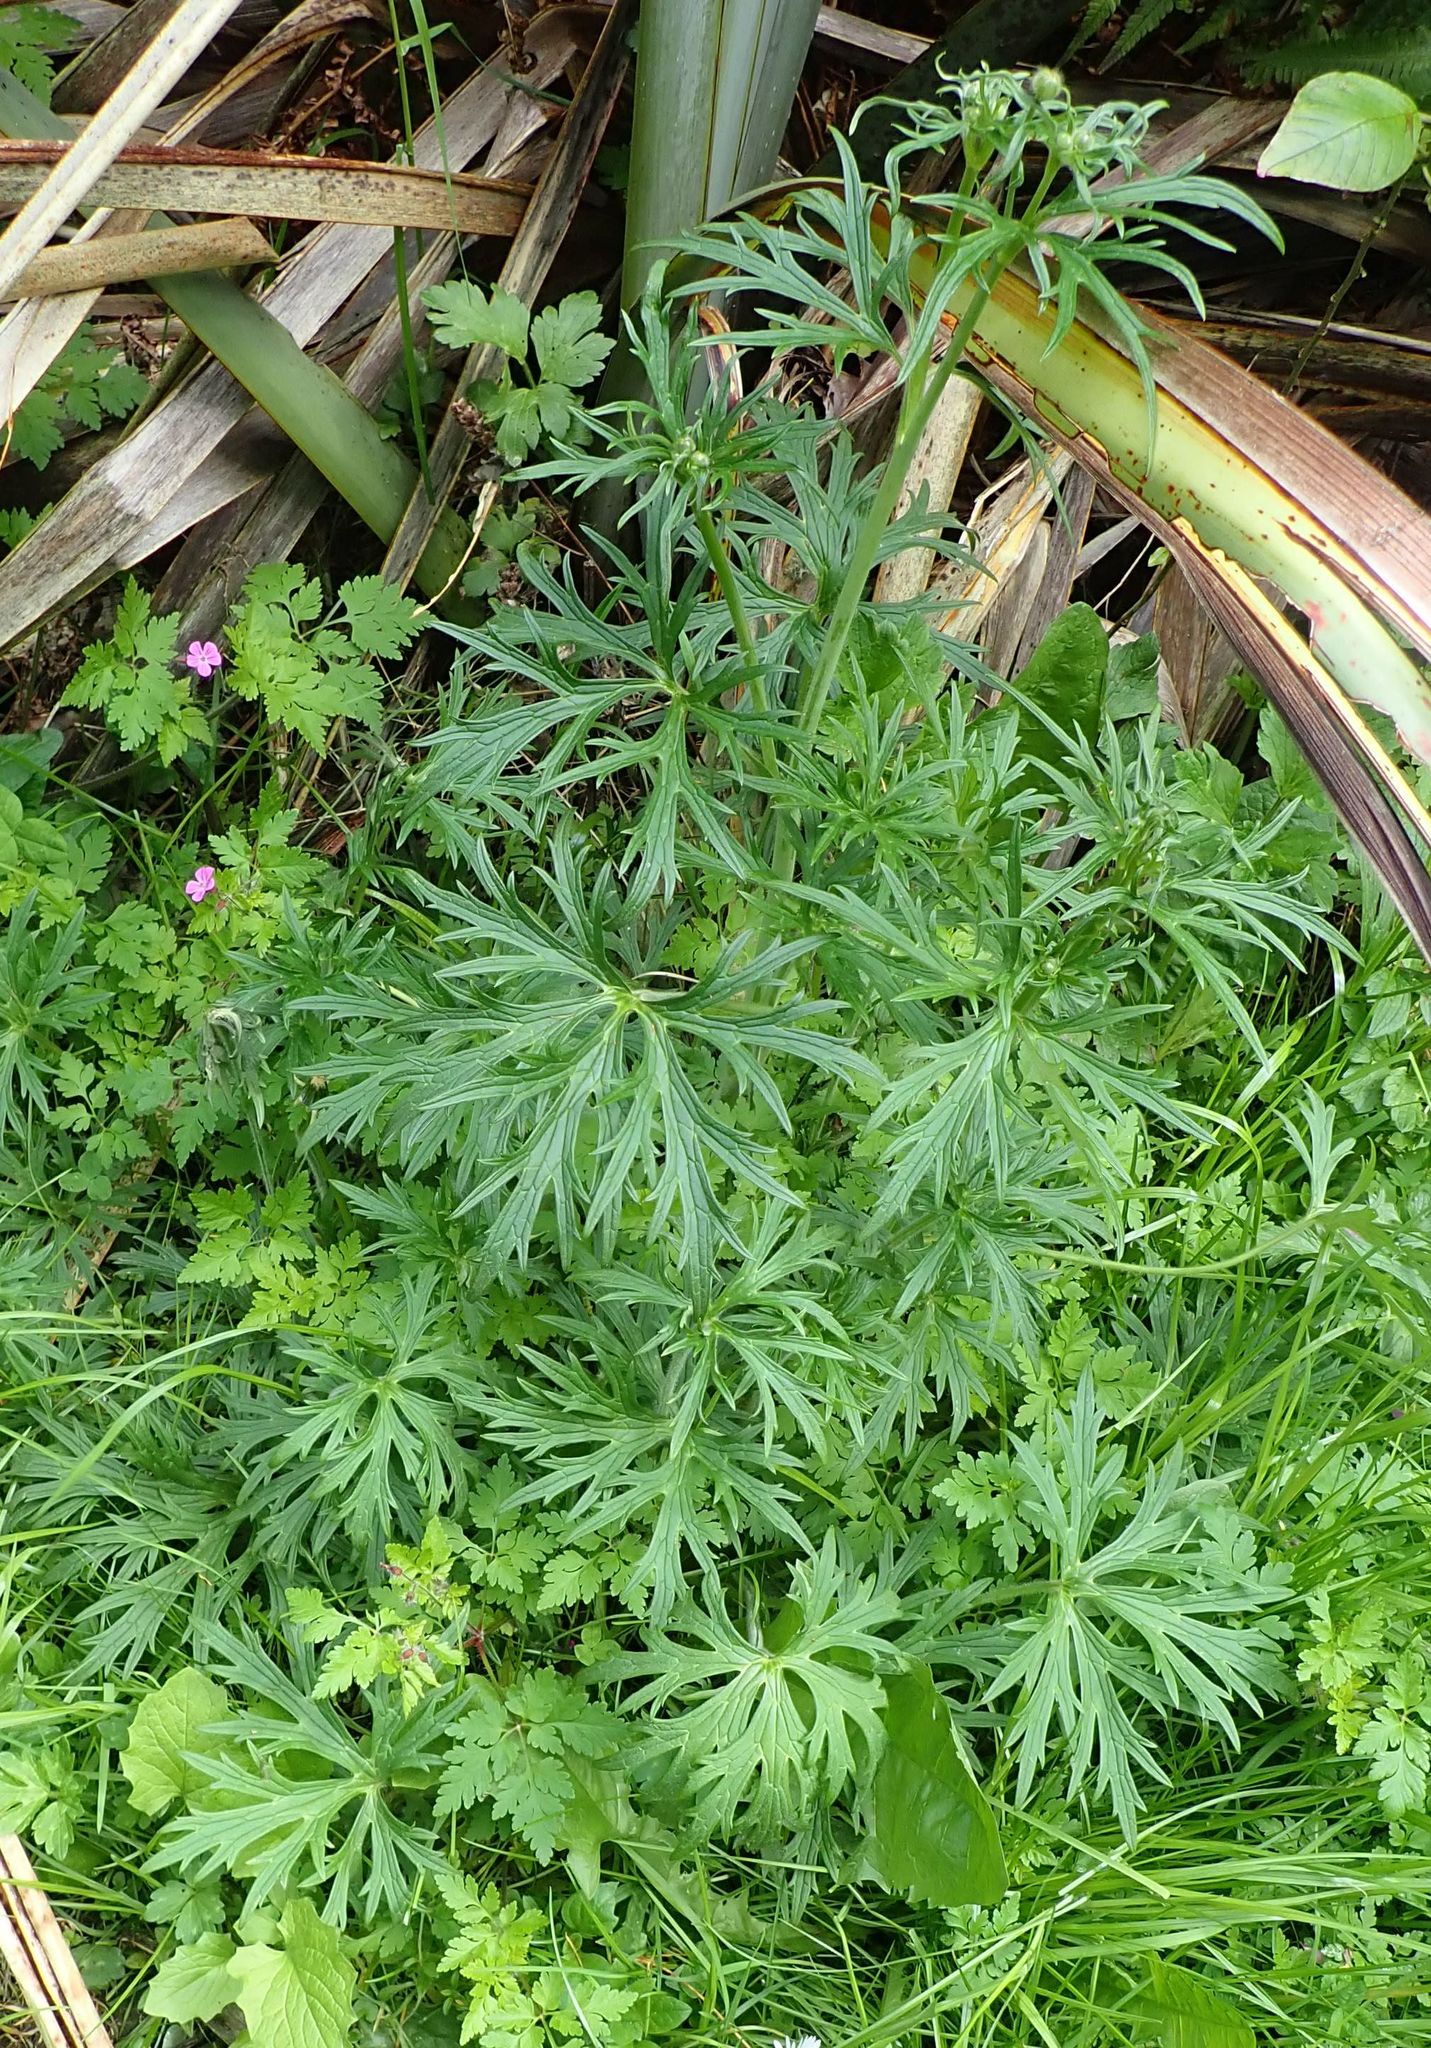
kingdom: Plantae
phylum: Tracheophyta
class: Magnoliopsida
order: Ranunculales
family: Ranunculaceae
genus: Ranunculus
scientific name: Ranunculus acris
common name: Meadow buttercup
